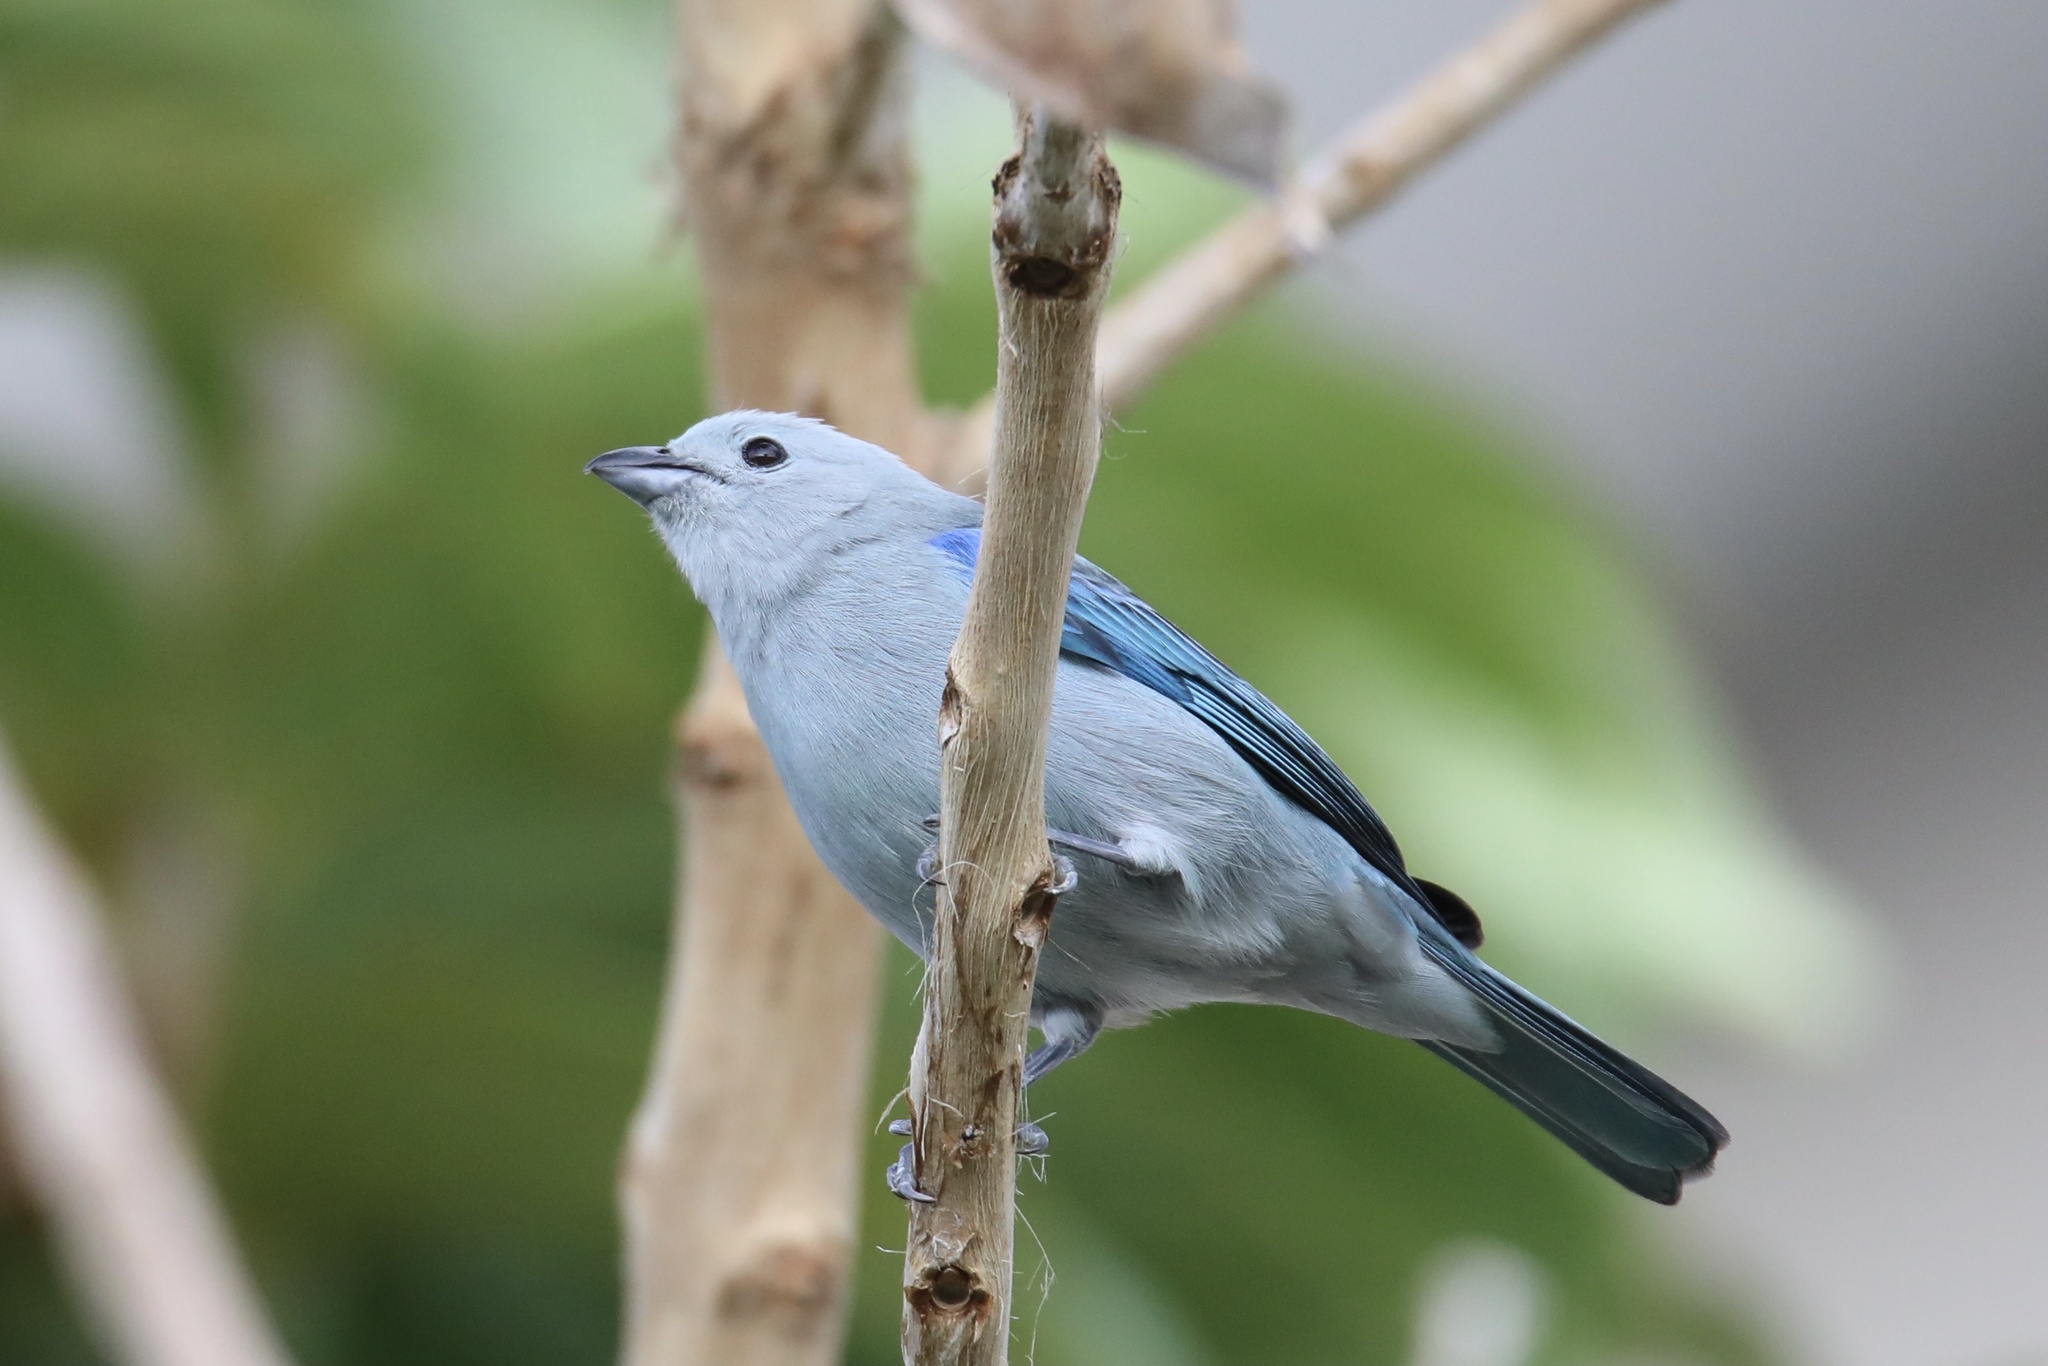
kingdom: Animalia
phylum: Chordata
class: Aves
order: Passeriformes
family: Thraupidae
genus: Thraupis
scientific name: Thraupis episcopus
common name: Blue-grey tanager
